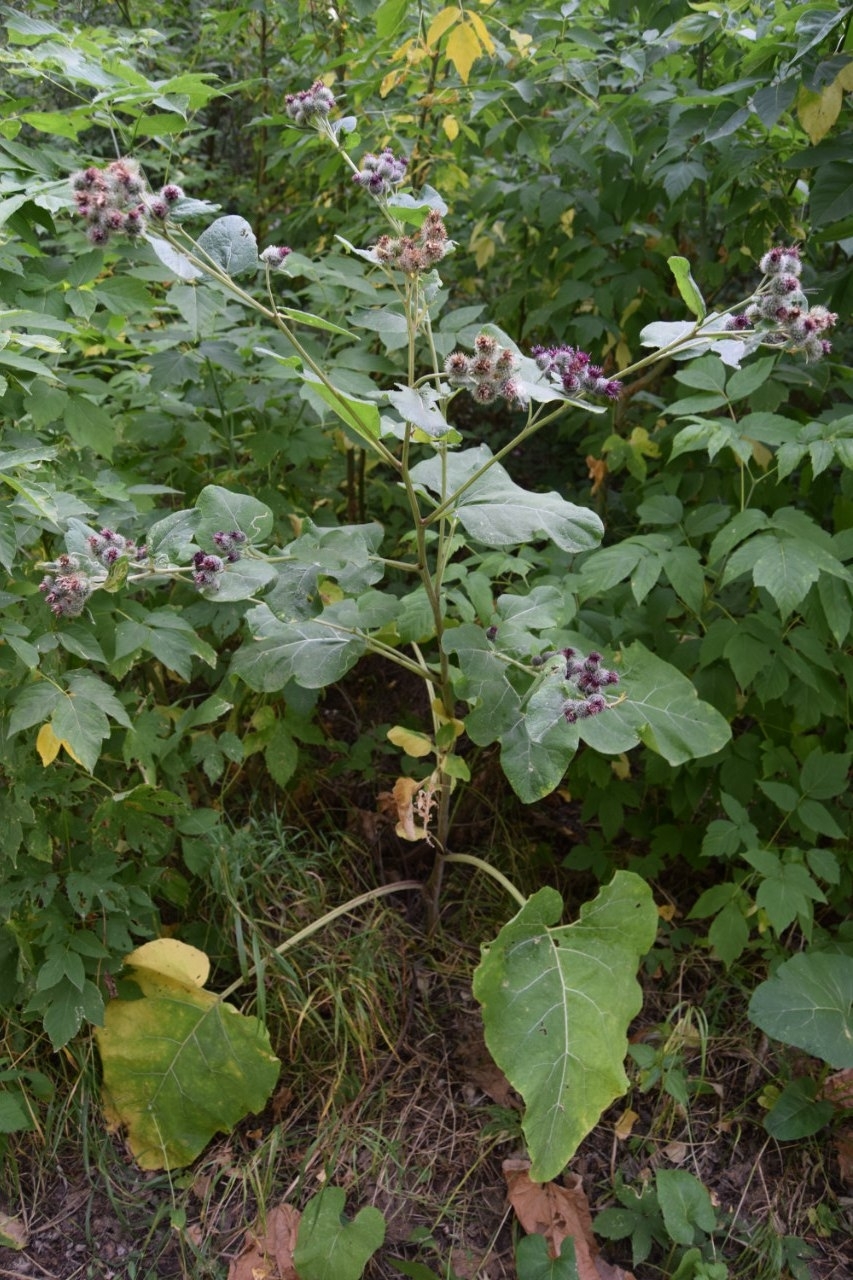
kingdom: Plantae
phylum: Tracheophyta
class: Magnoliopsida
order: Asterales
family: Asteraceae
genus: Arctium
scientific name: Arctium tomentosum
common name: Woolly burdock
